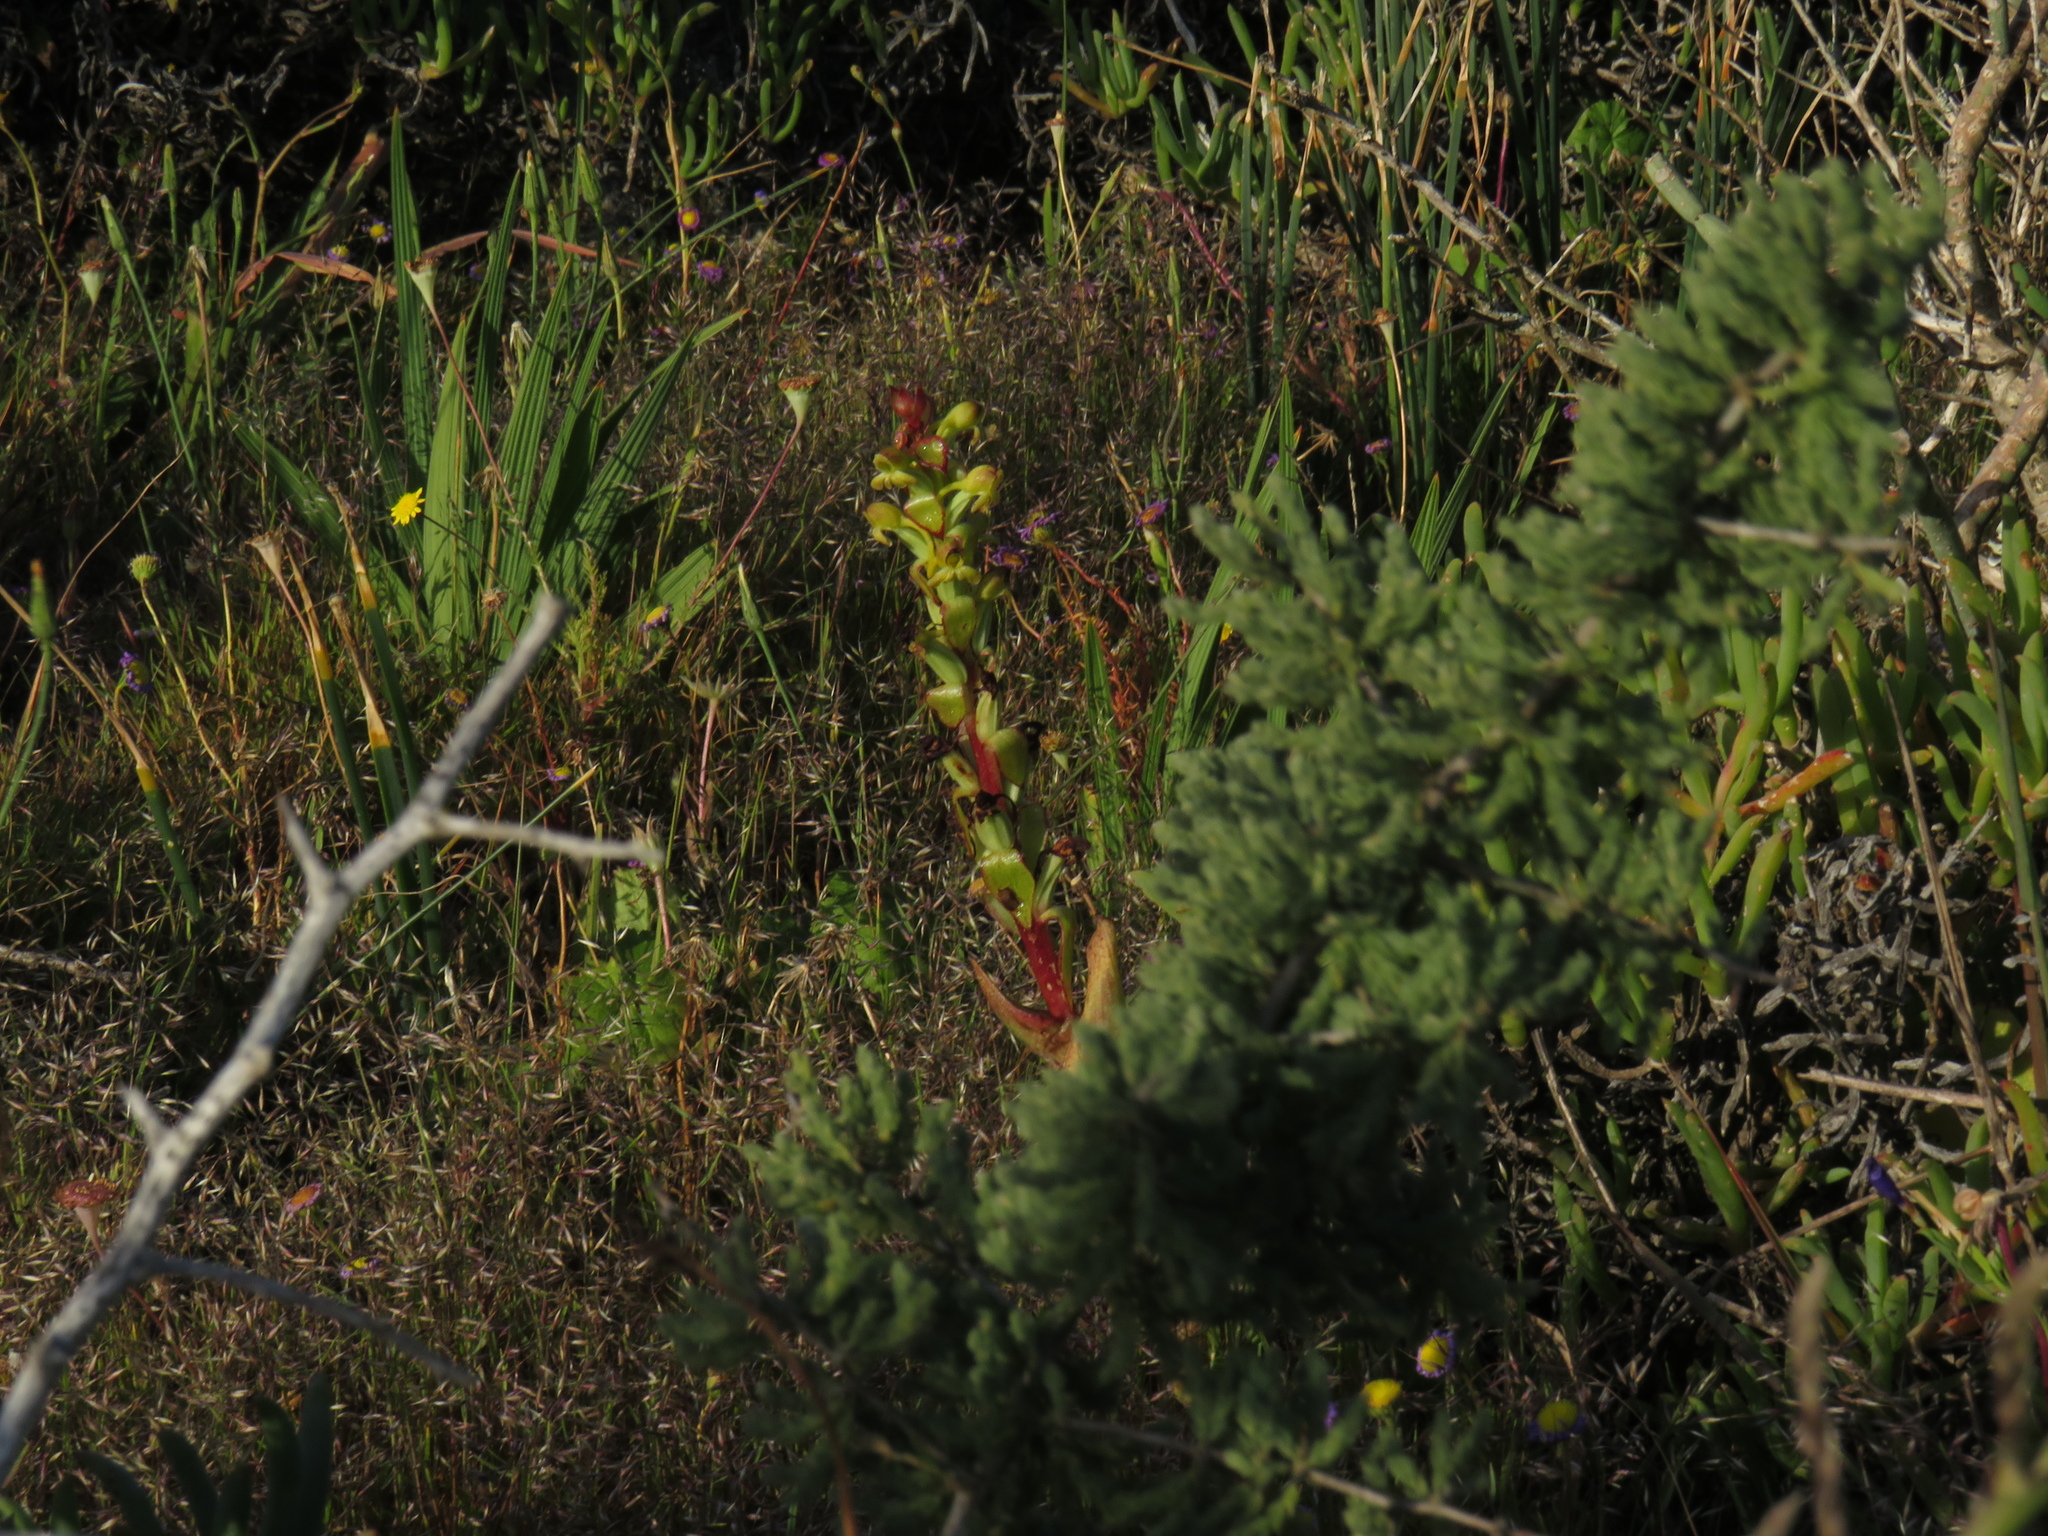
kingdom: Plantae
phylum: Tracheophyta
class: Liliopsida
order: Asparagales
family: Orchidaceae
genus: Satyrium
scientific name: Satyrium odorum
